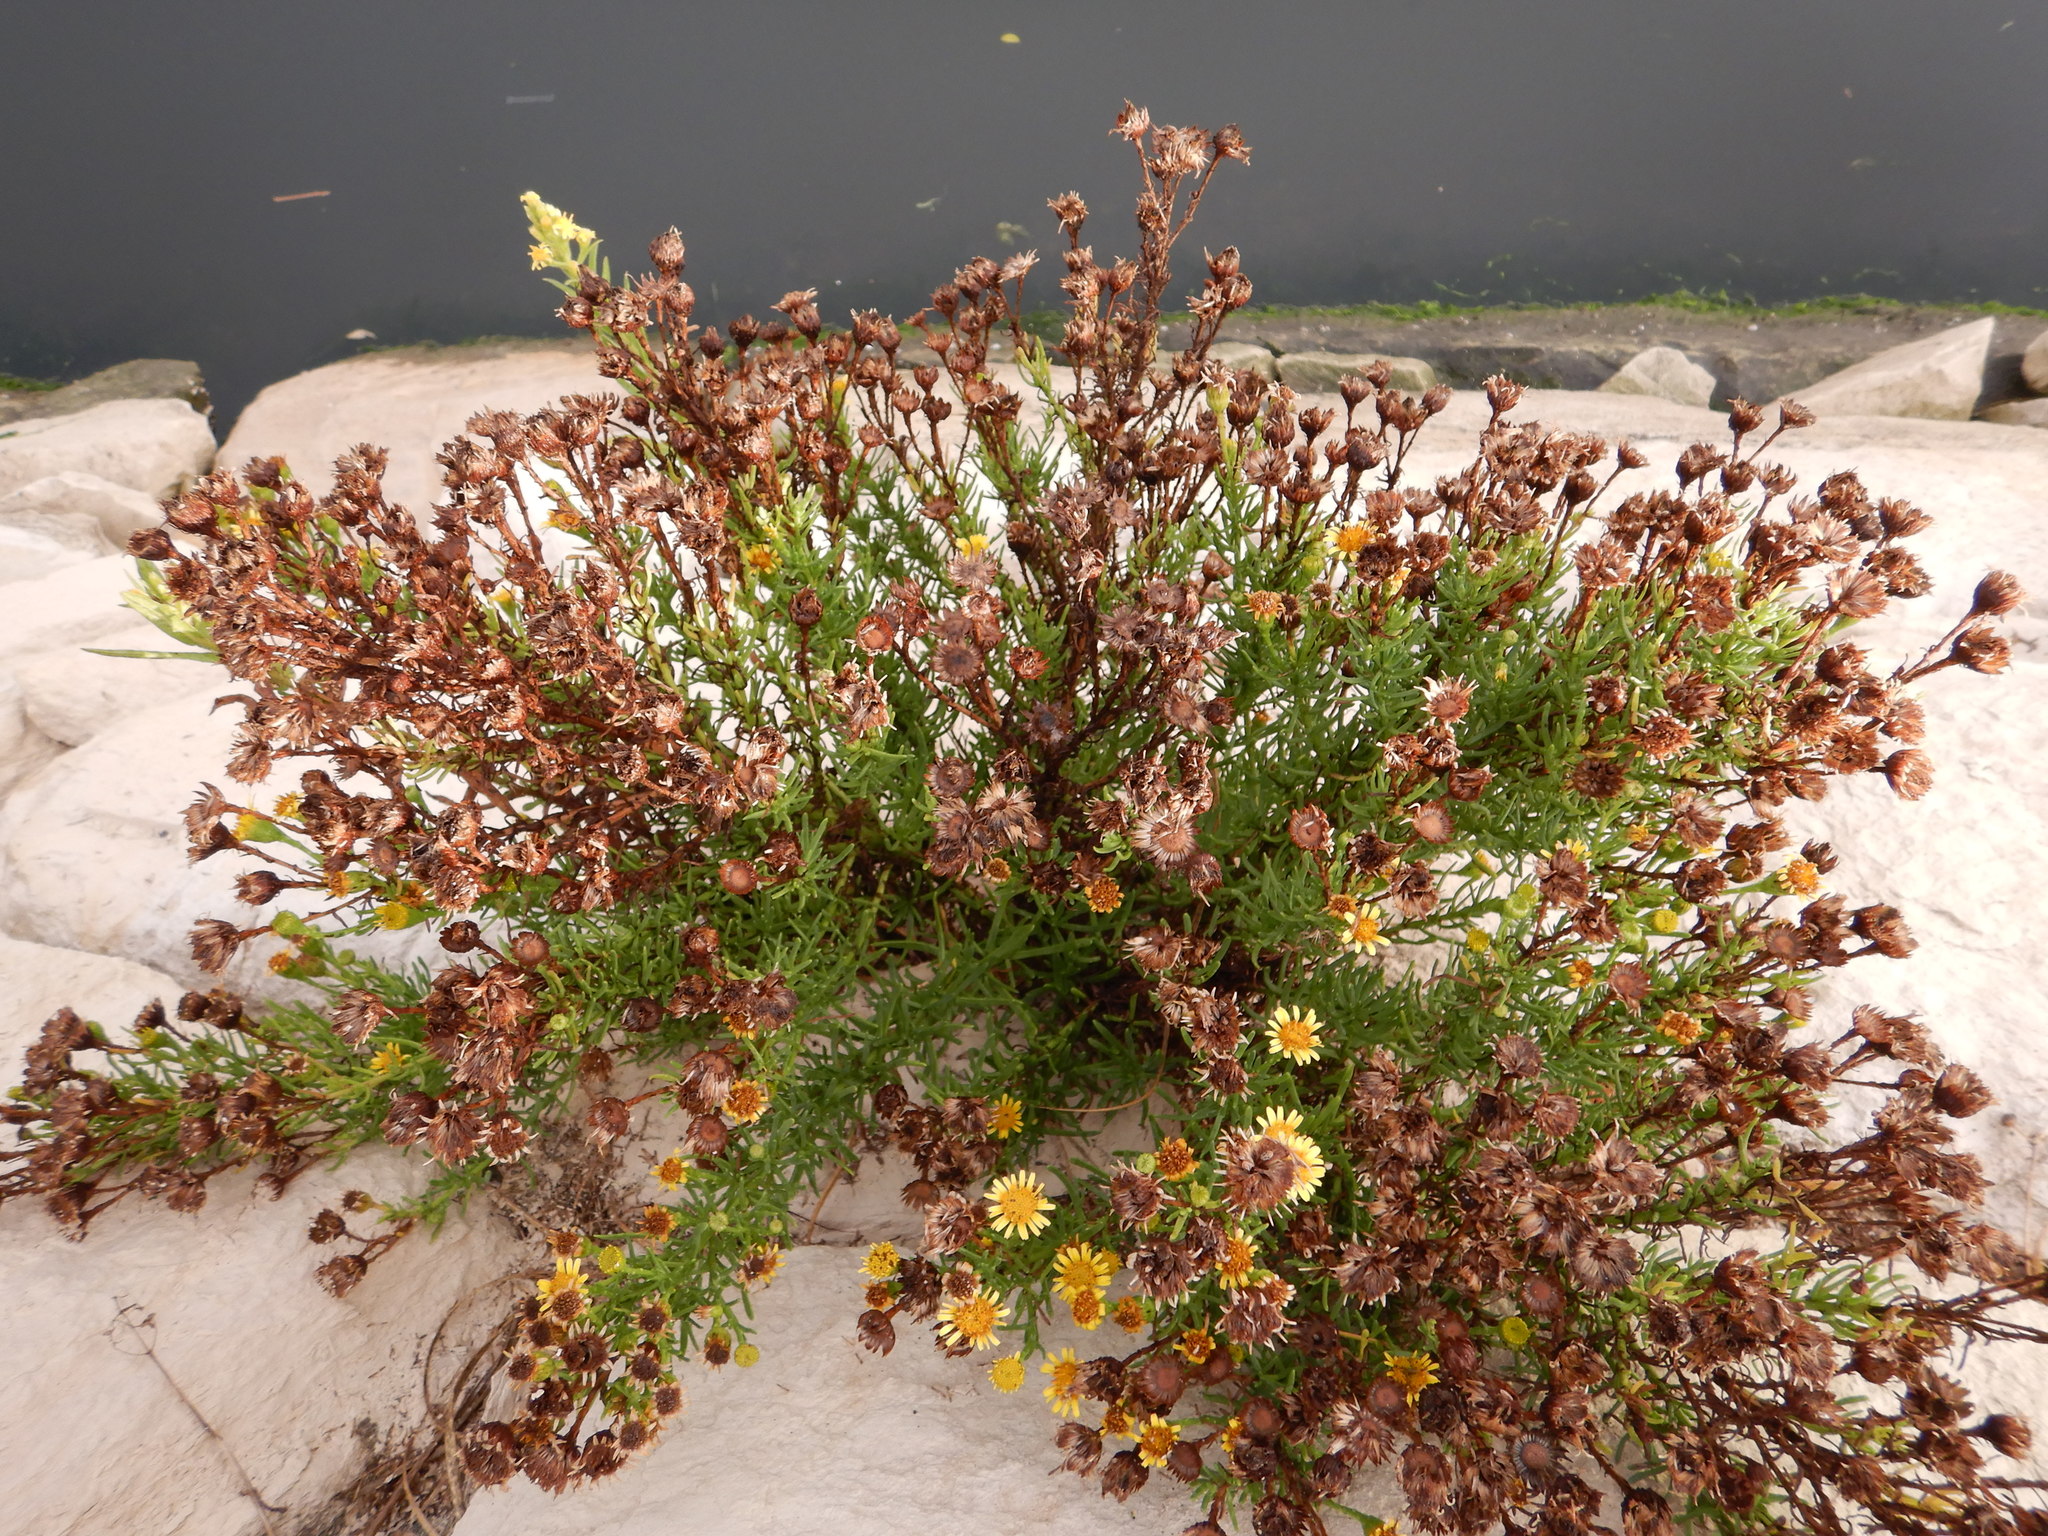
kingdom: Plantae
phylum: Tracheophyta
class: Magnoliopsida
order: Asterales
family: Asteraceae
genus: Limbarda
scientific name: Limbarda crithmoides
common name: Golden samphire
